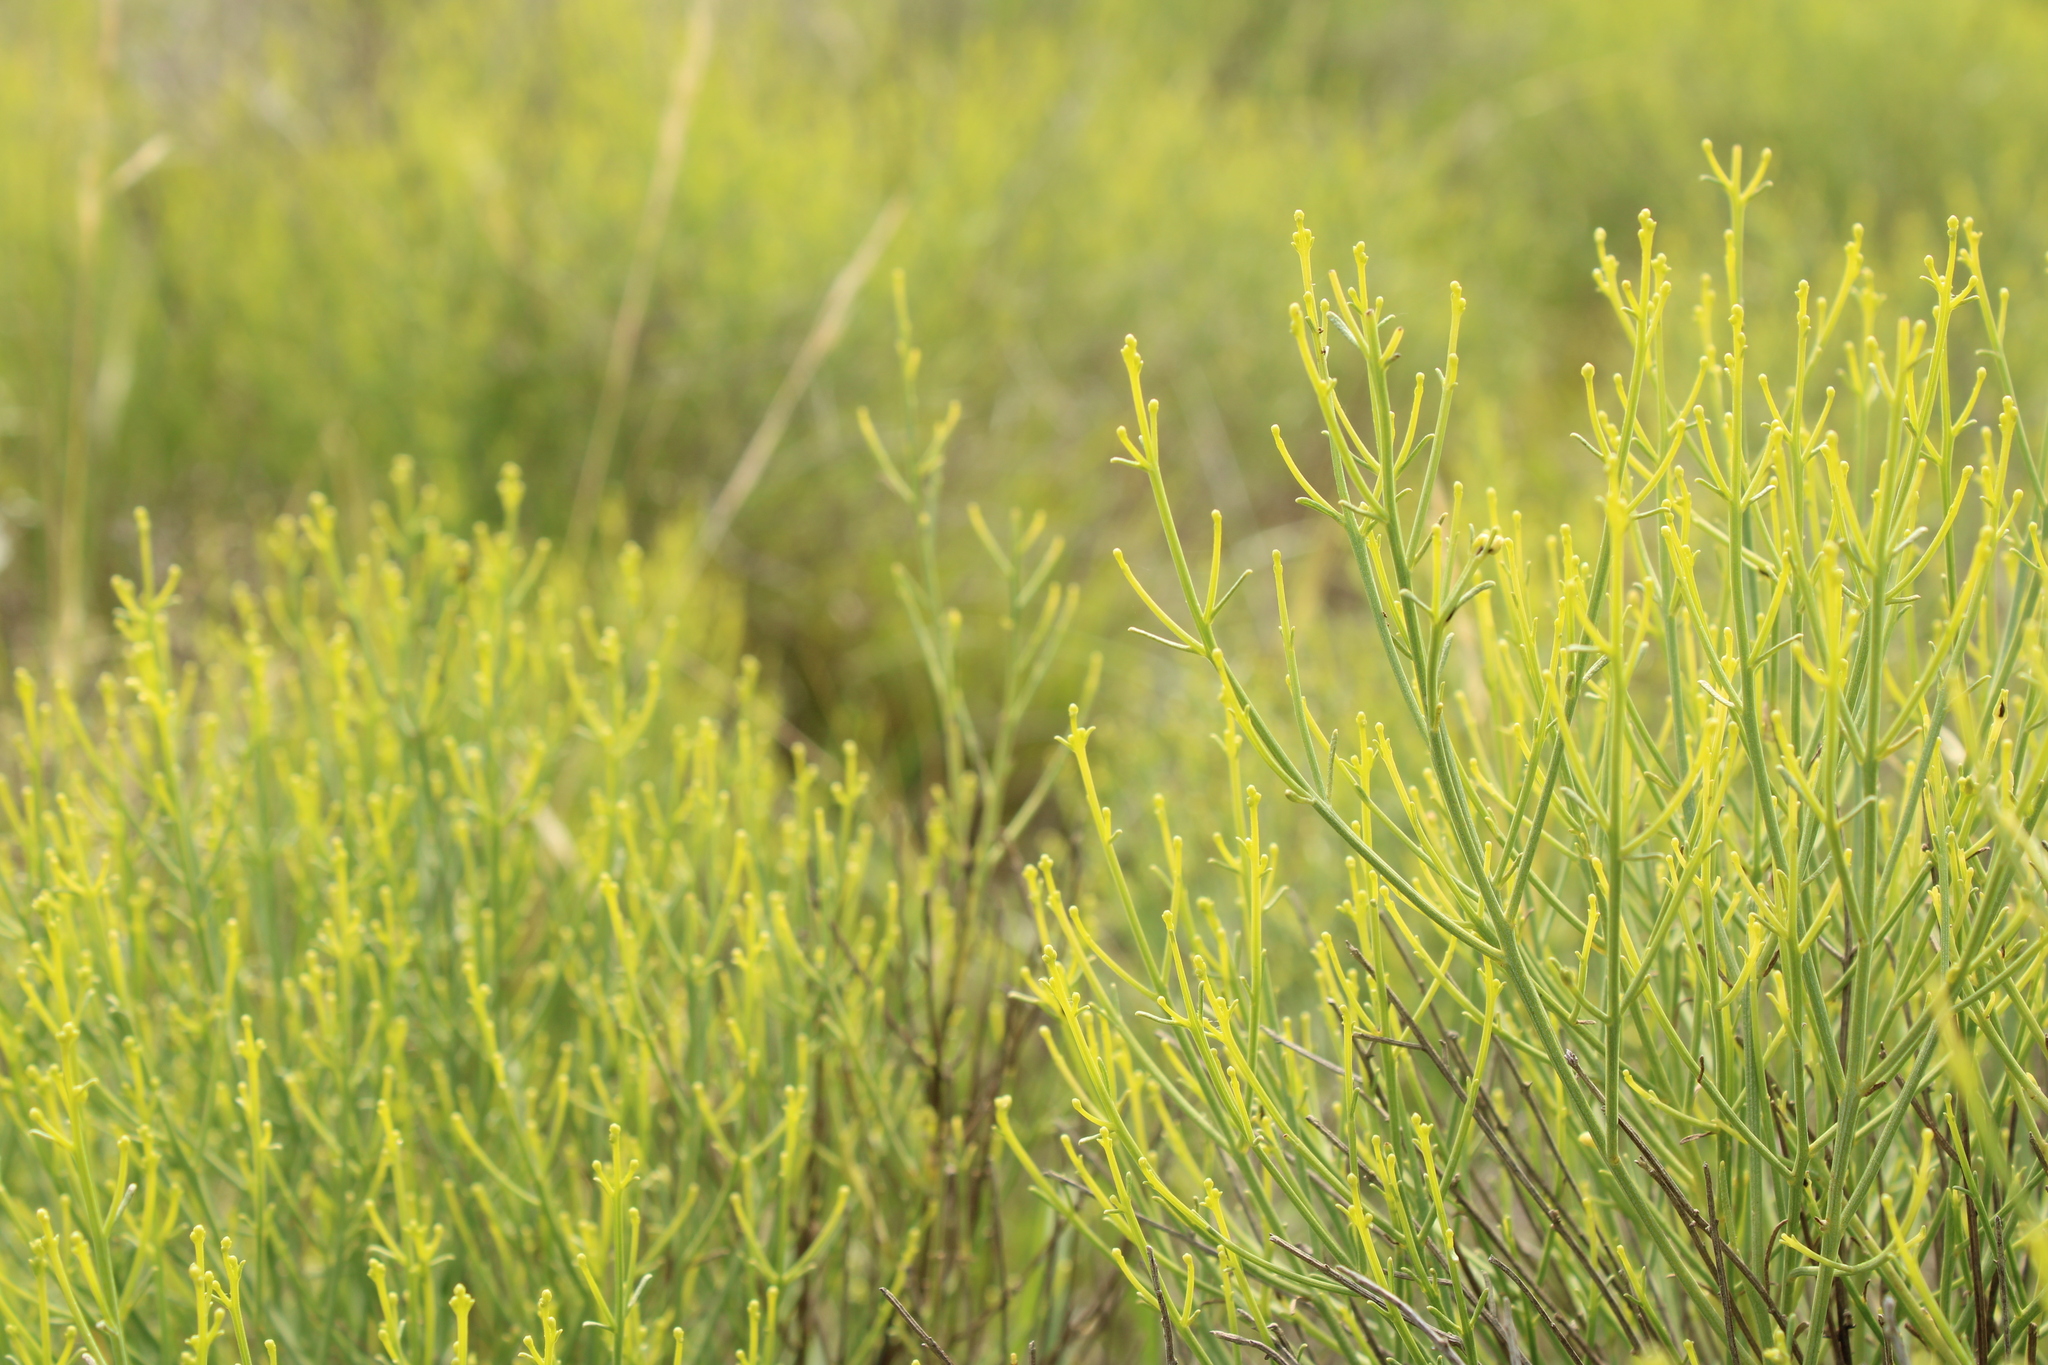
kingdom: Plantae
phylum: Tracheophyta
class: Magnoliopsida
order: Asterales
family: Asteraceae
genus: Baccharis
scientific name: Baccharis notosergila
